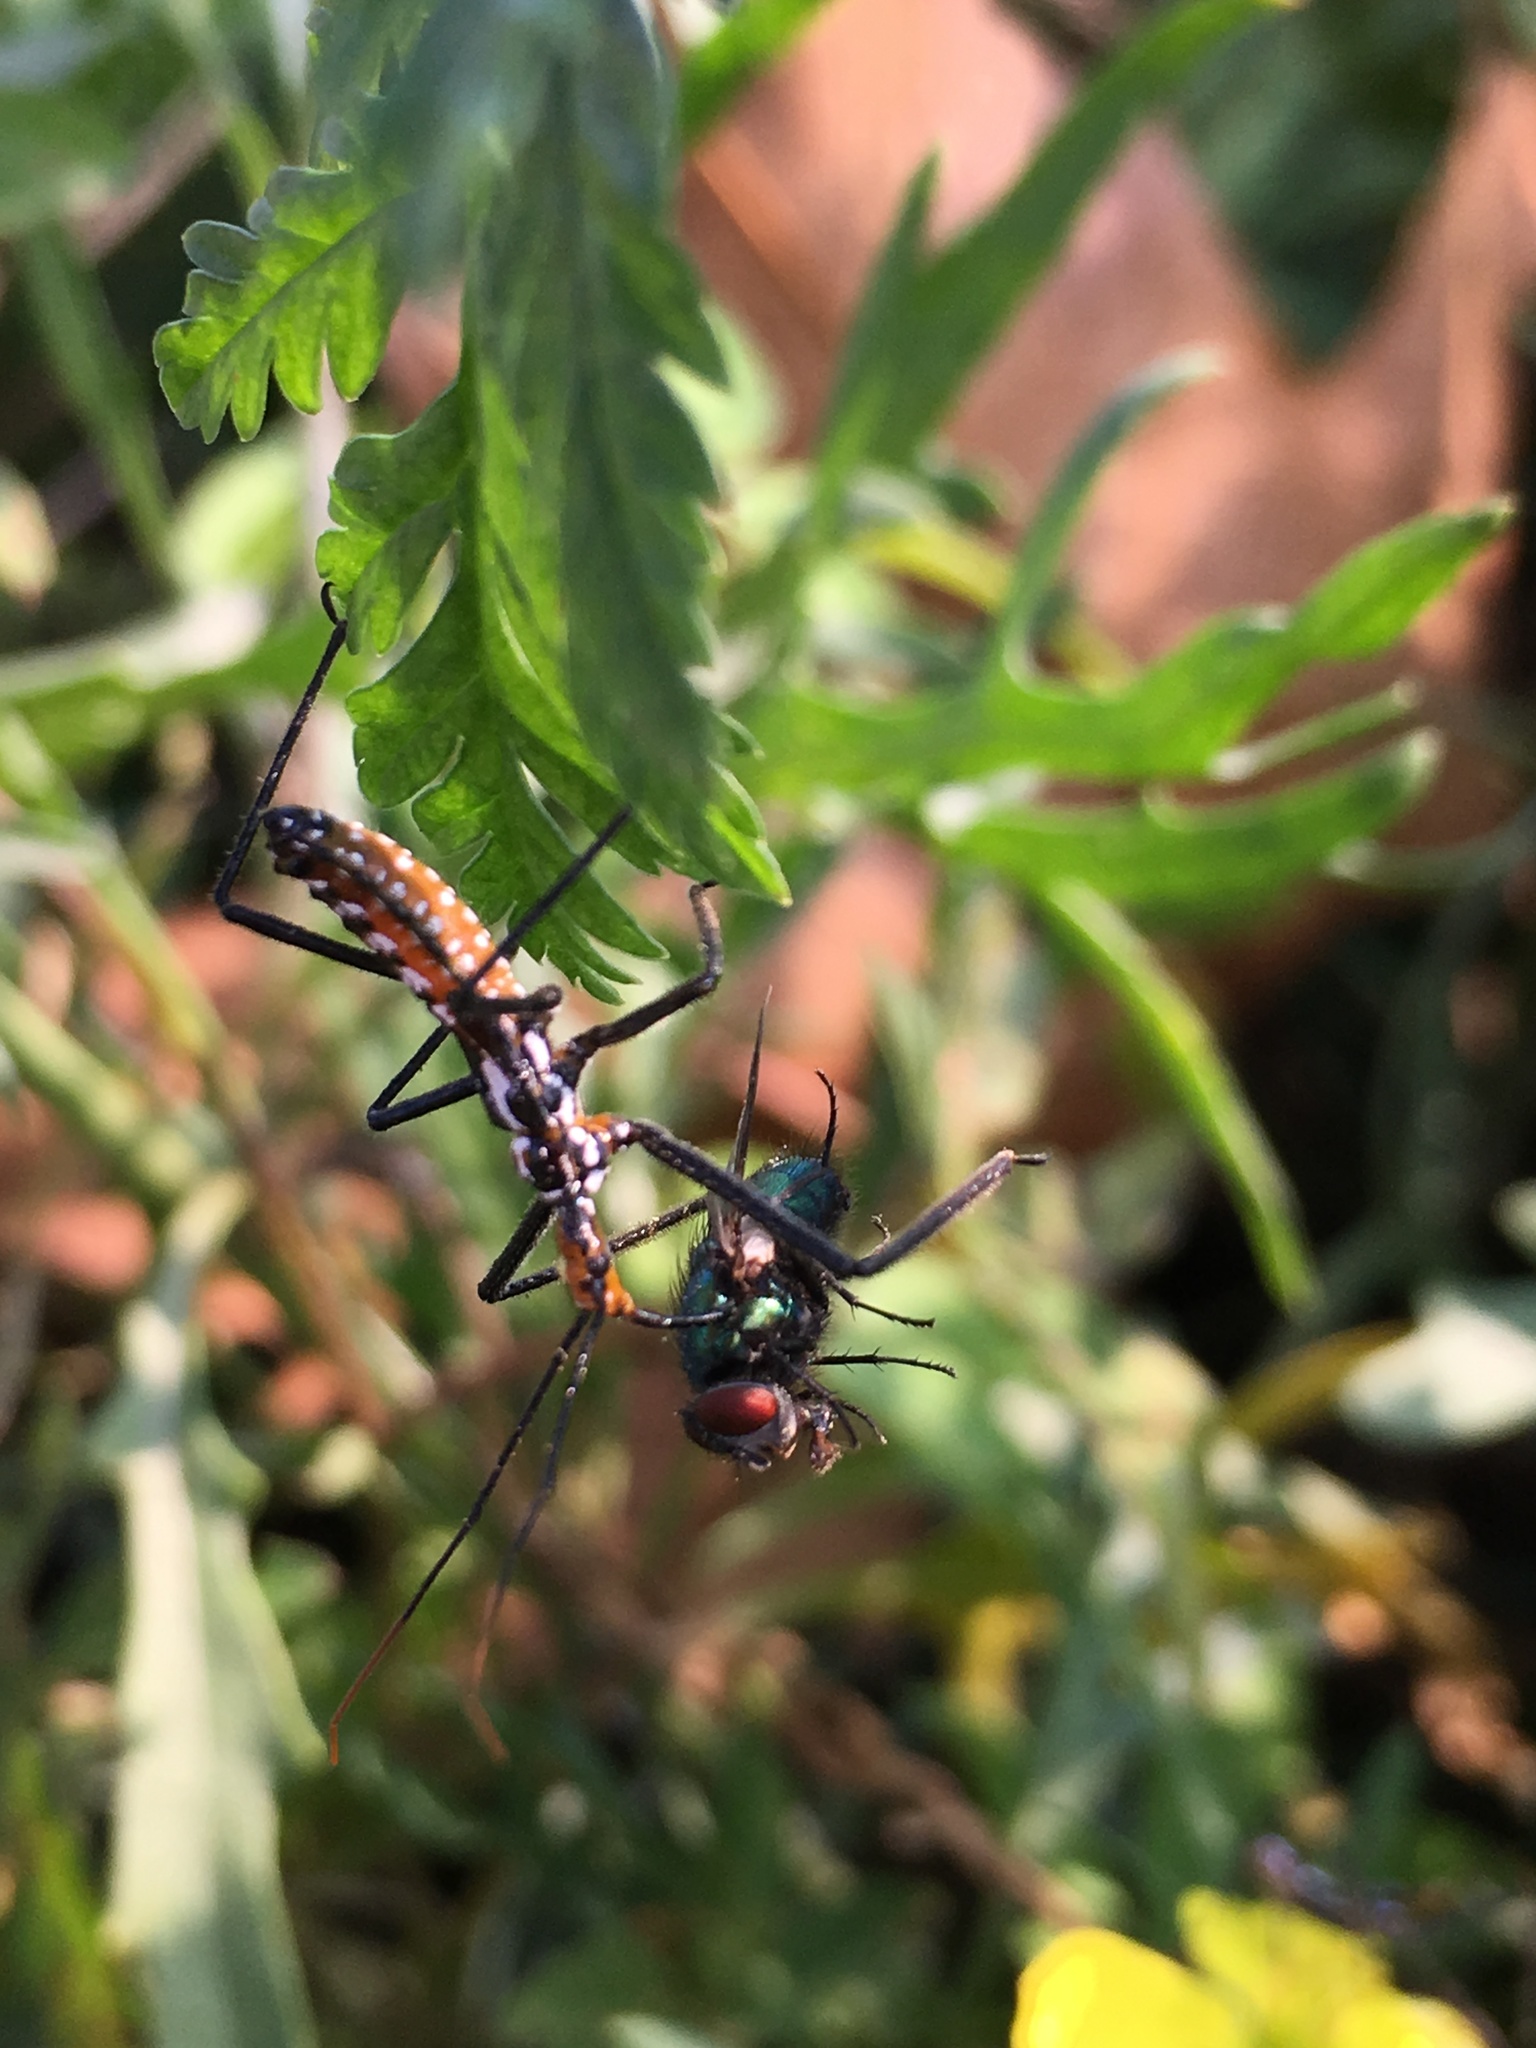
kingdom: Animalia
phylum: Arthropoda
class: Insecta
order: Hemiptera
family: Reduviidae
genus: Zelus
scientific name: Zelus leucogrammus
